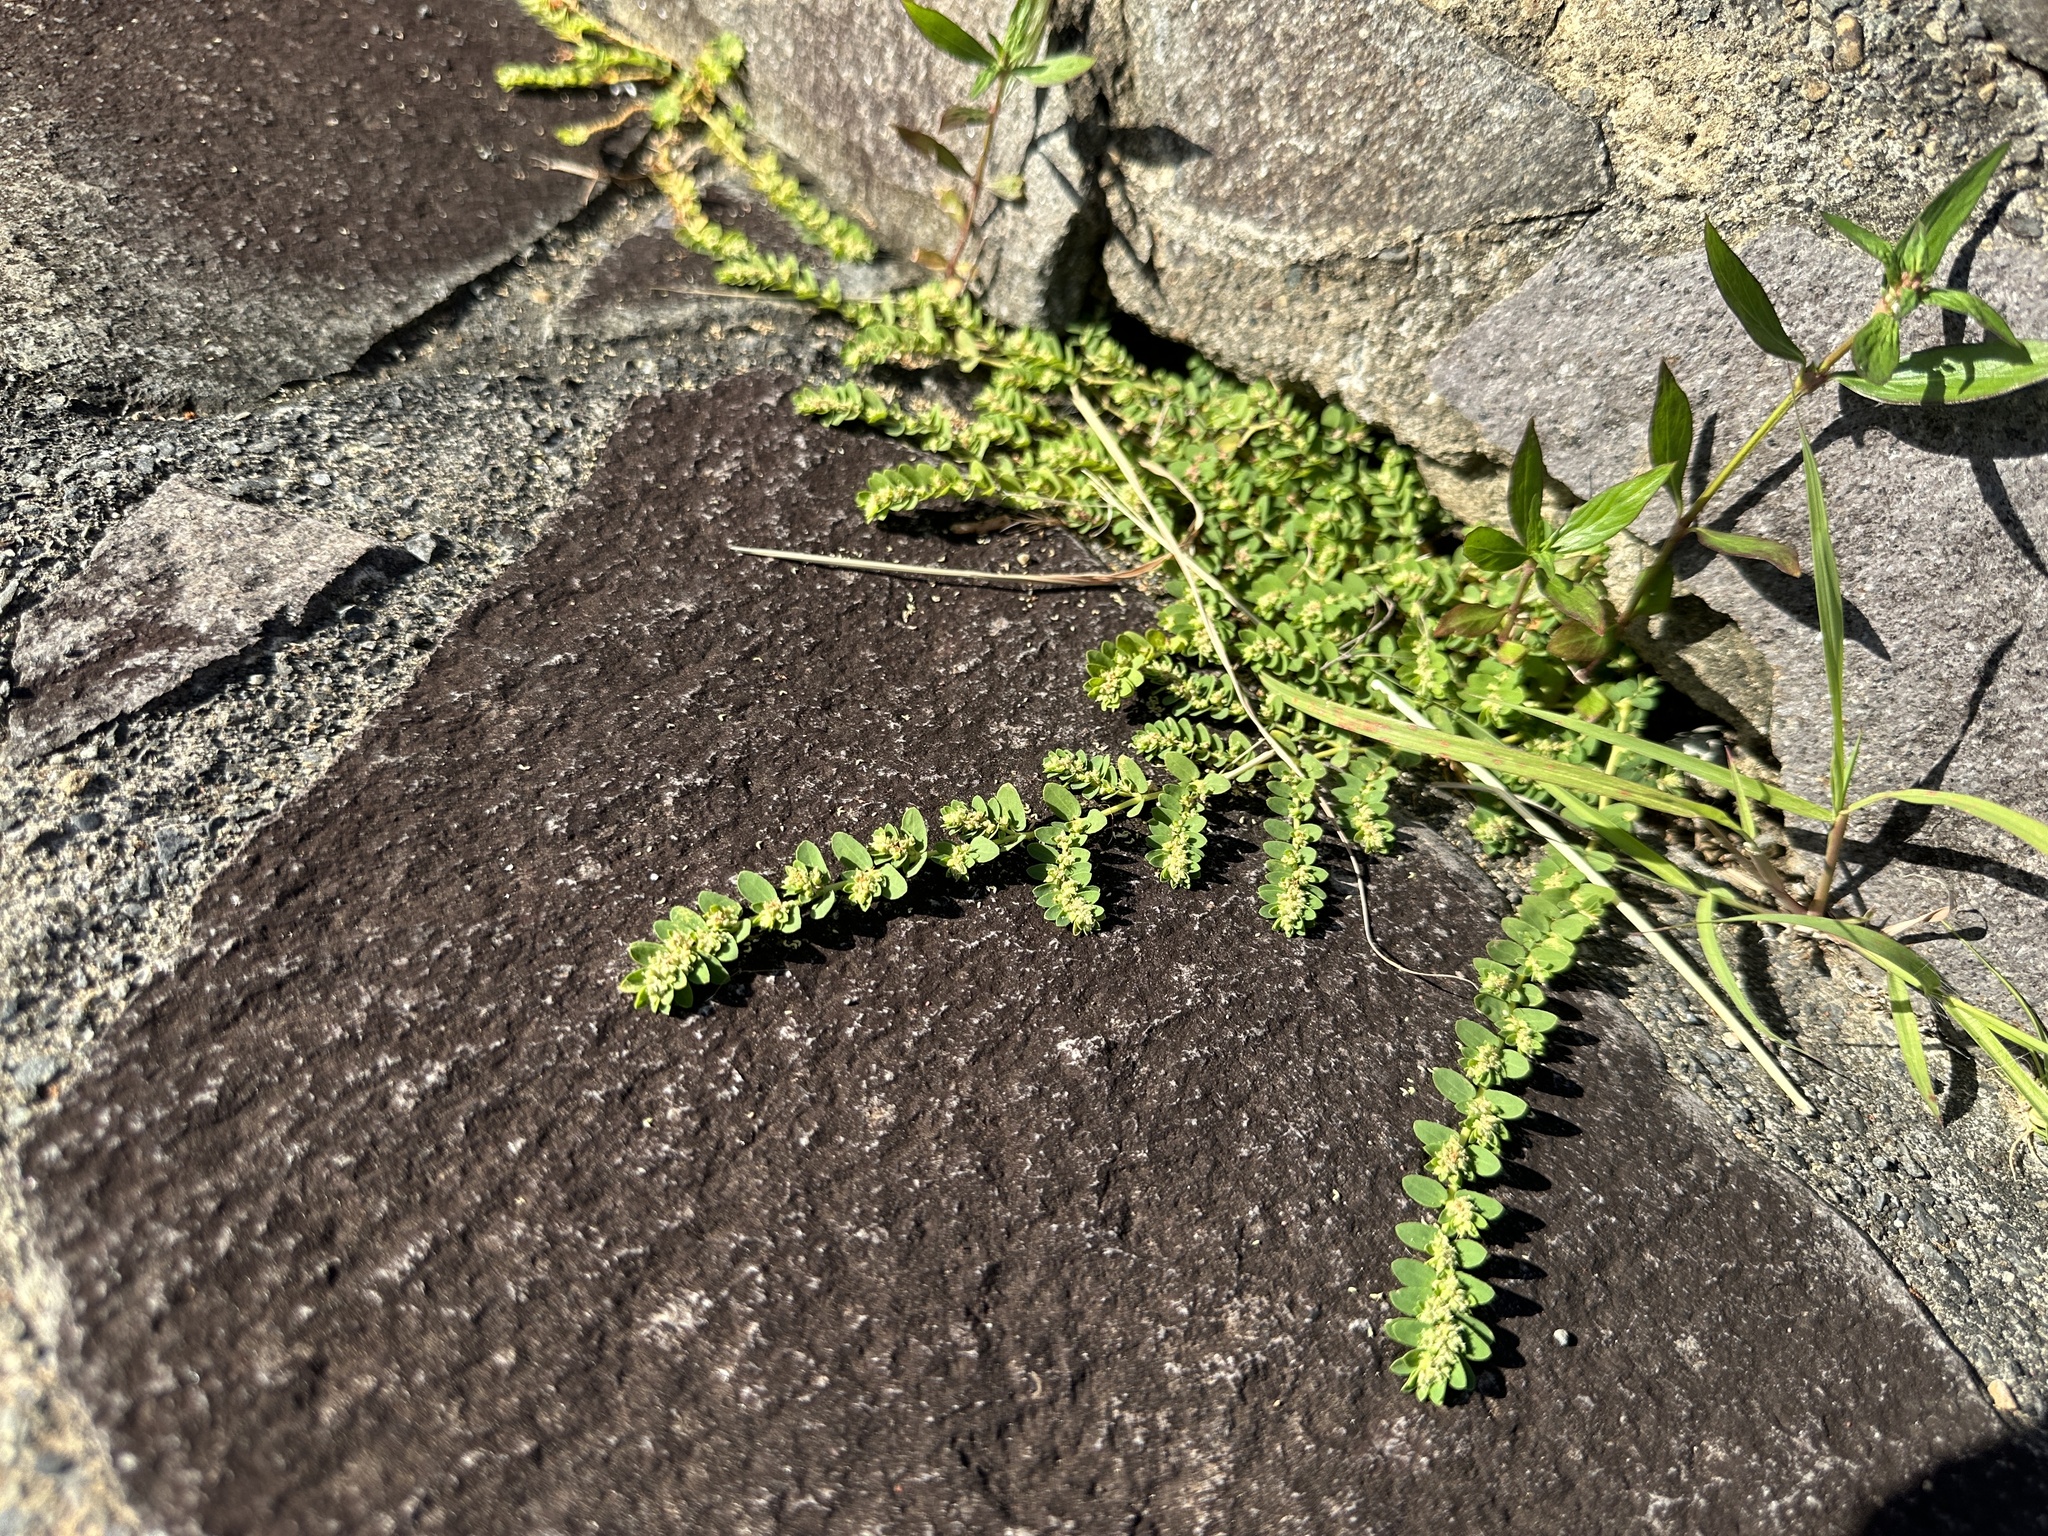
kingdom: Plantae
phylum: Tracheophyta
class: Magnoliopsida
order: Malpighiales
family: Euphorbiaceae
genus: Euphorbia
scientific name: Euphorbia thymifolia
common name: Gulf sandmat
